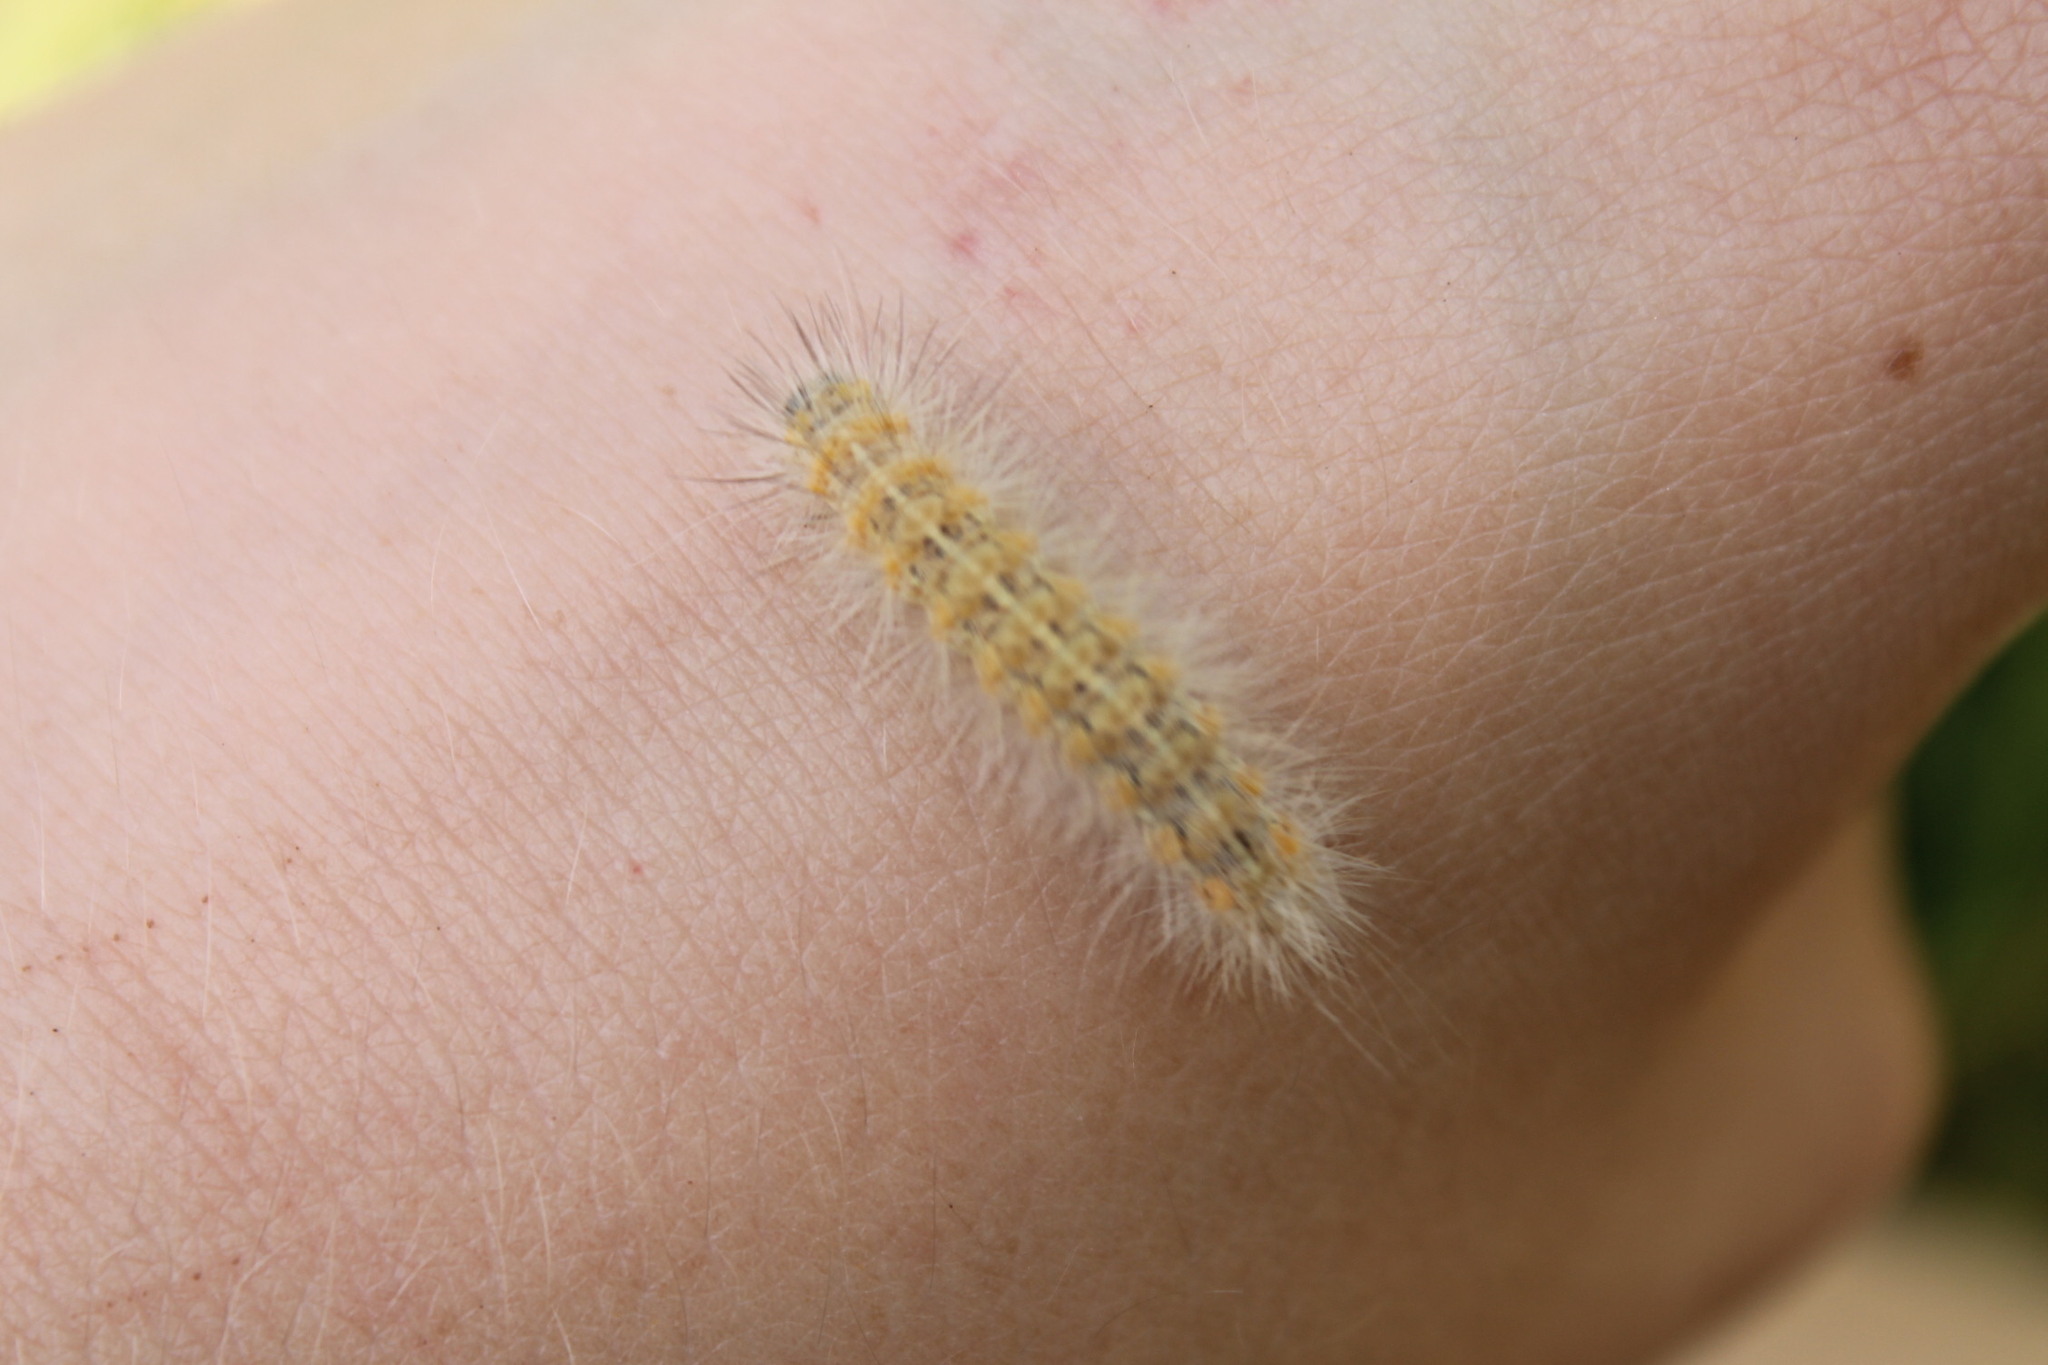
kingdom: Animalia
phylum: Arthropoda
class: Insecta
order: Lepidoptera
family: Erebidae
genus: Spilosoma
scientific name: Spilosoma virginica
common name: Virginia tiger moth
